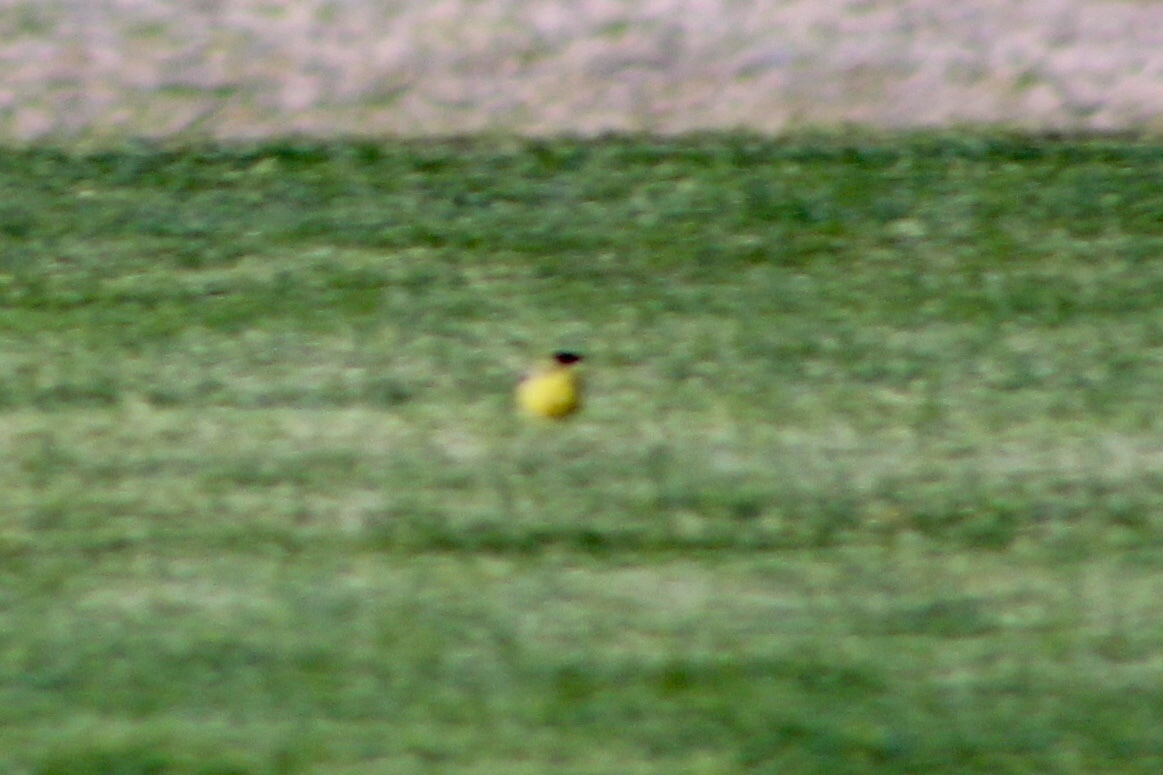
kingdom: Animalia
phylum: Chordata
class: Aves
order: Passeriformes
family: Fringillidae
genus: Spinus
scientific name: Spinus psaltria
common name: Lesser goldfinch
